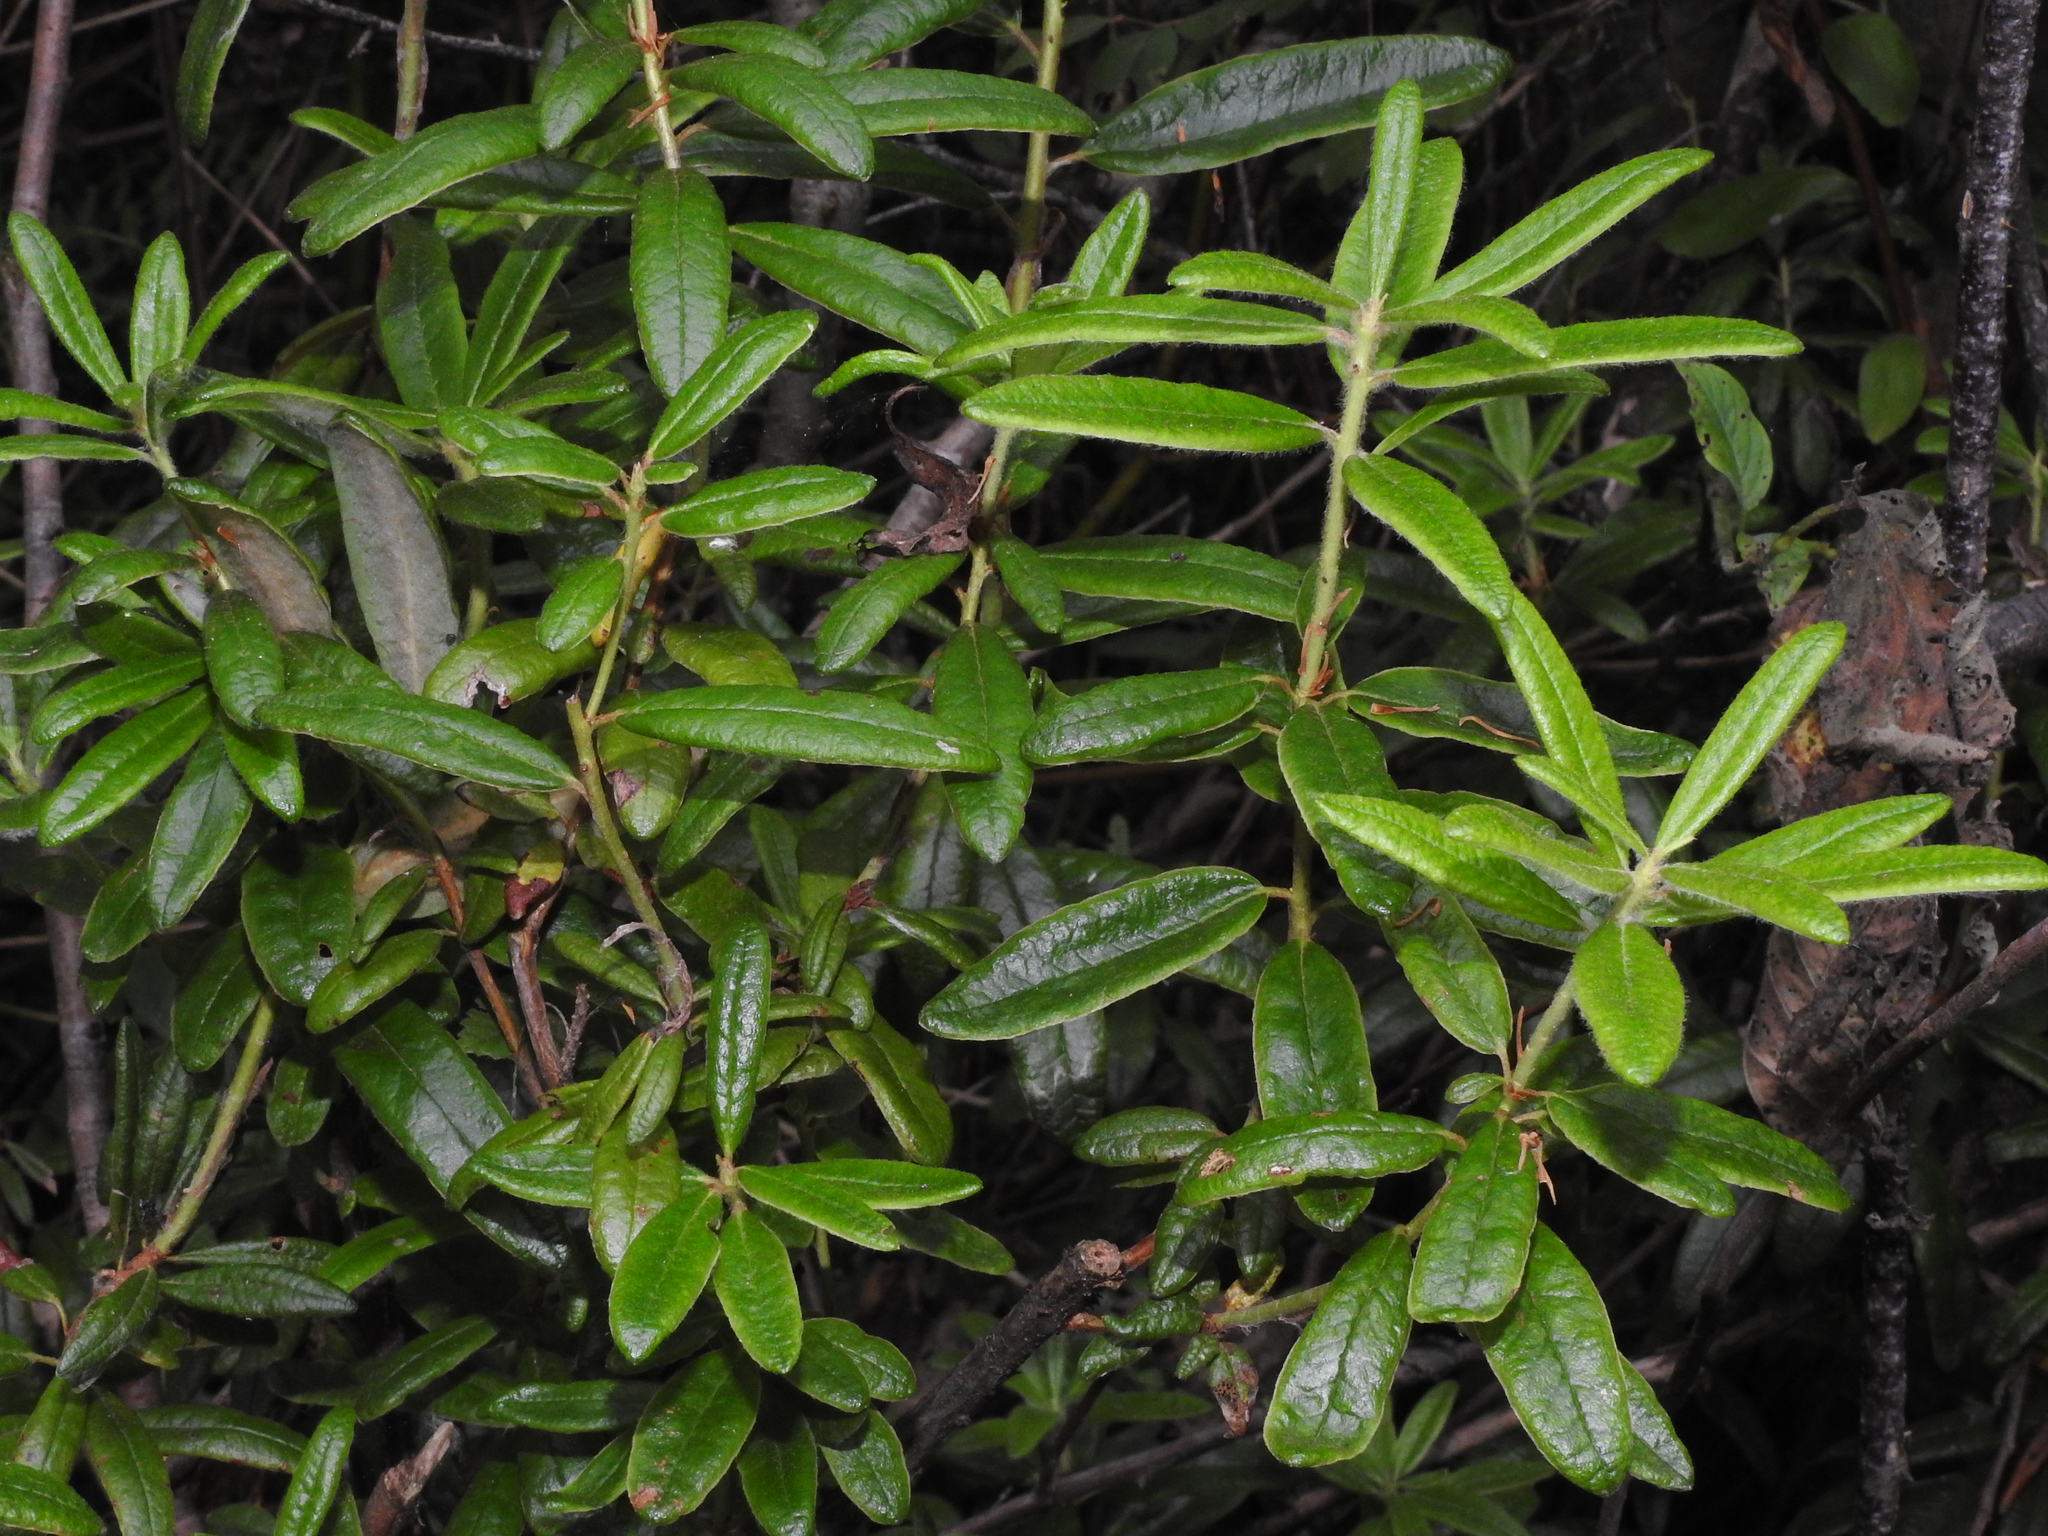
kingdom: Plantae
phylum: Tracheophyta
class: Magnoliopsida
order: Ericales
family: Ericaceae
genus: Rhododendron
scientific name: Rhododendron groenlandicum
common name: Bog labrador tea
